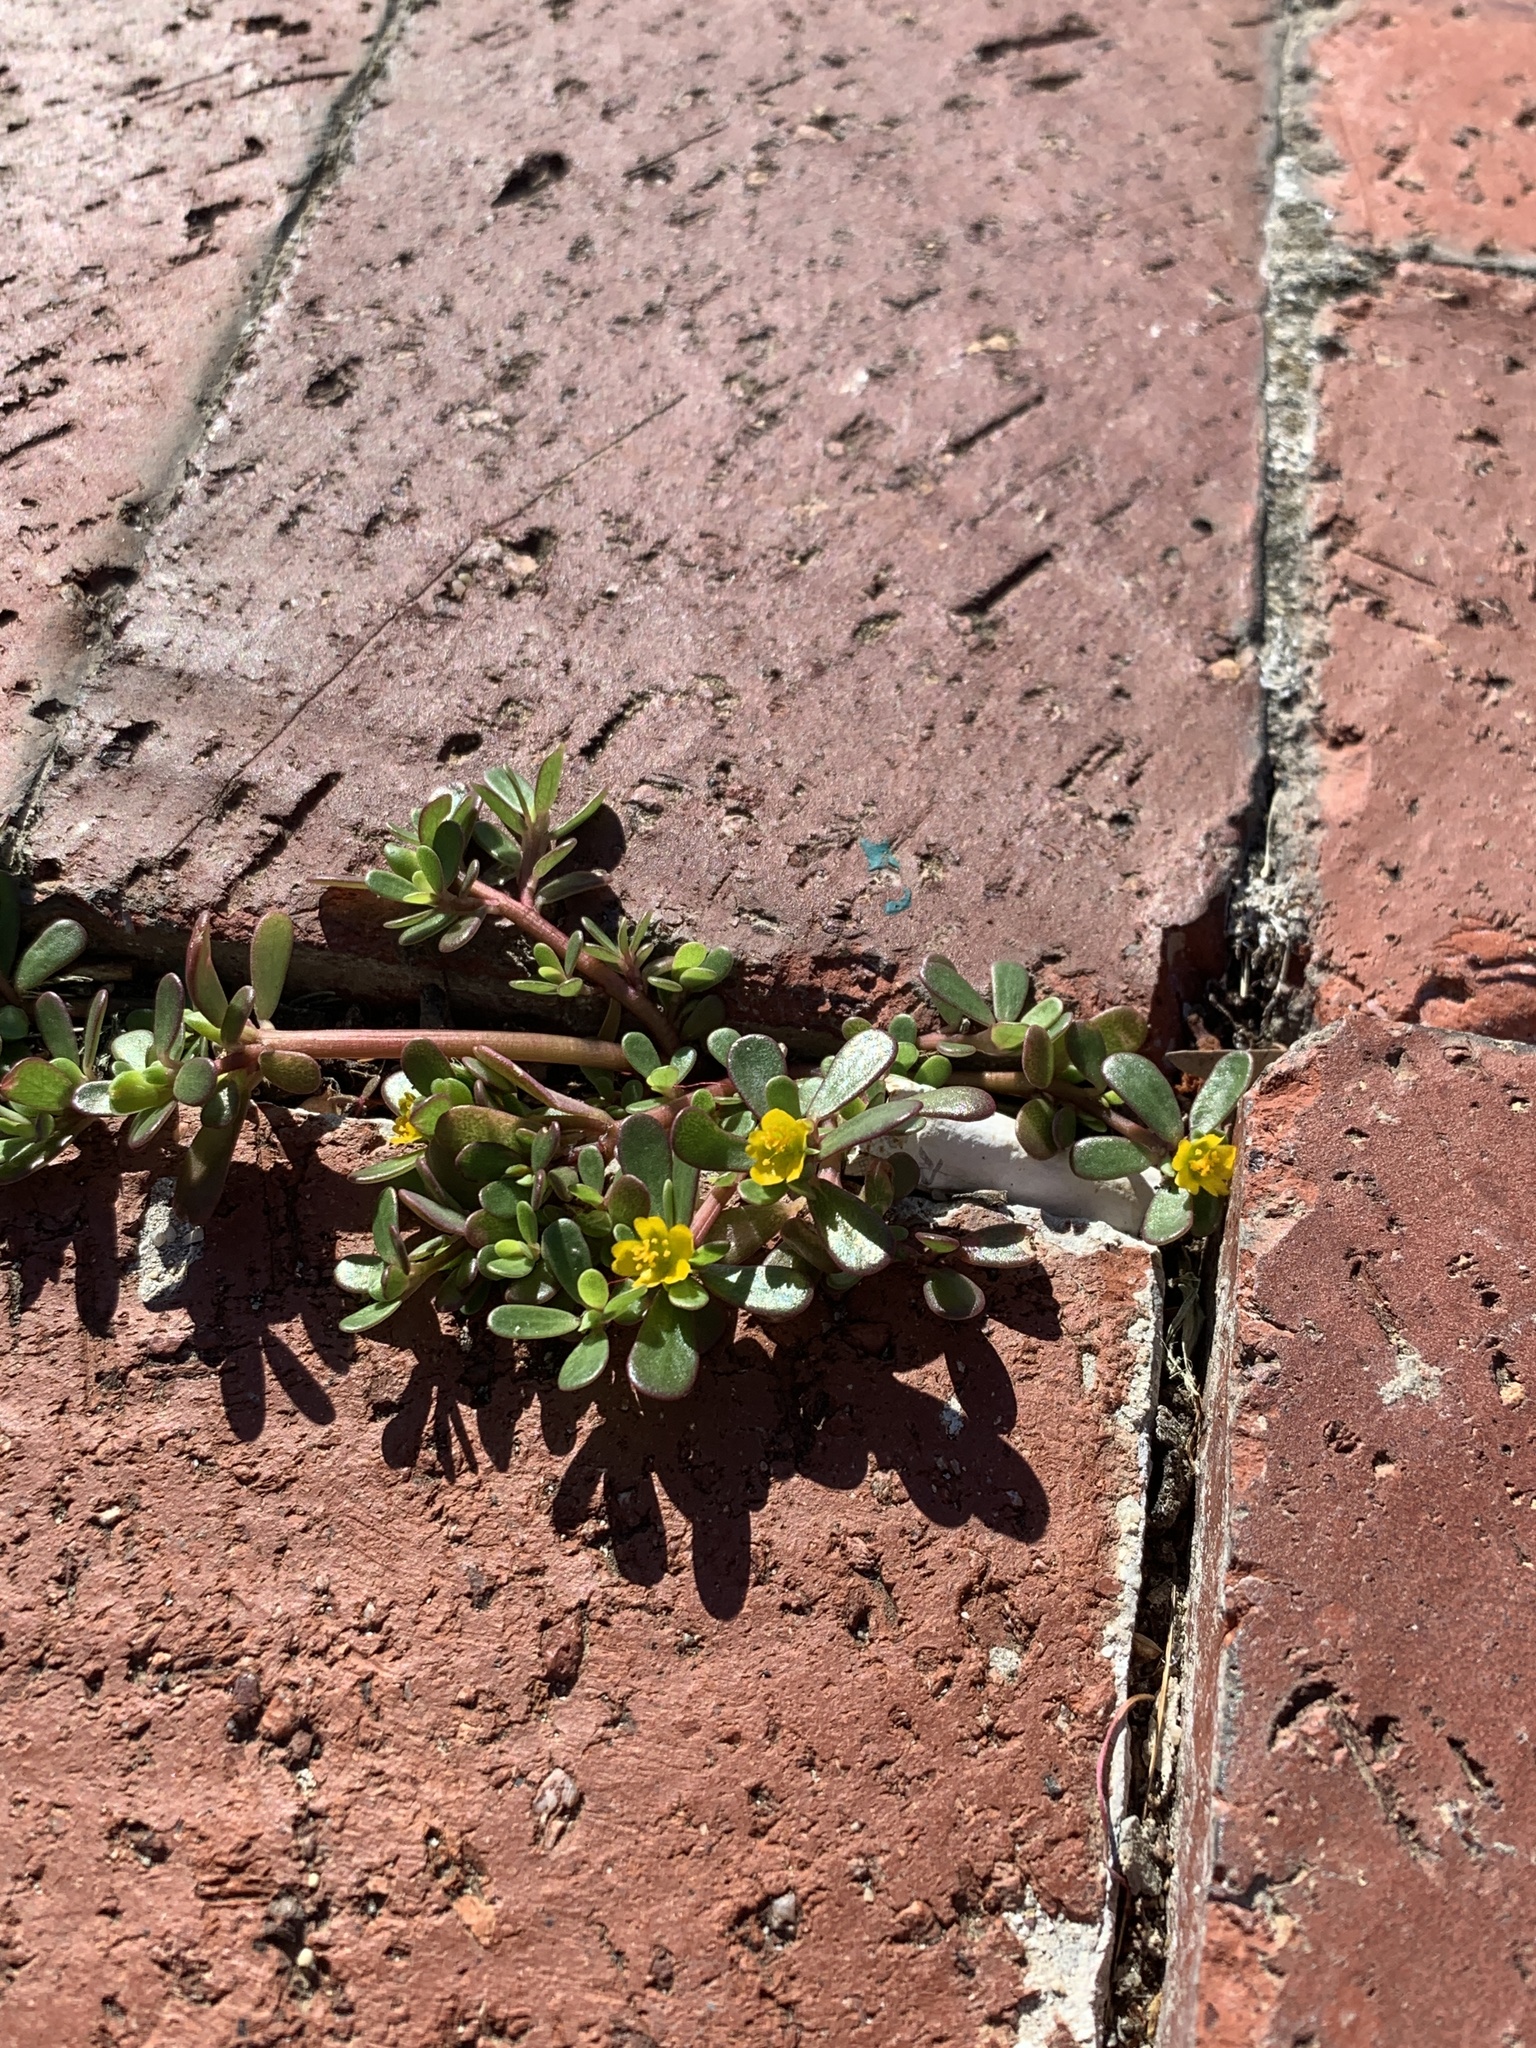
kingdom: Plantae
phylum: Tracheophyta
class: Magnoliopsida
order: Caryophyllales
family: Portulacaceae
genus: Portulaca
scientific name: Portulaca oleracea
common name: Common purslane
